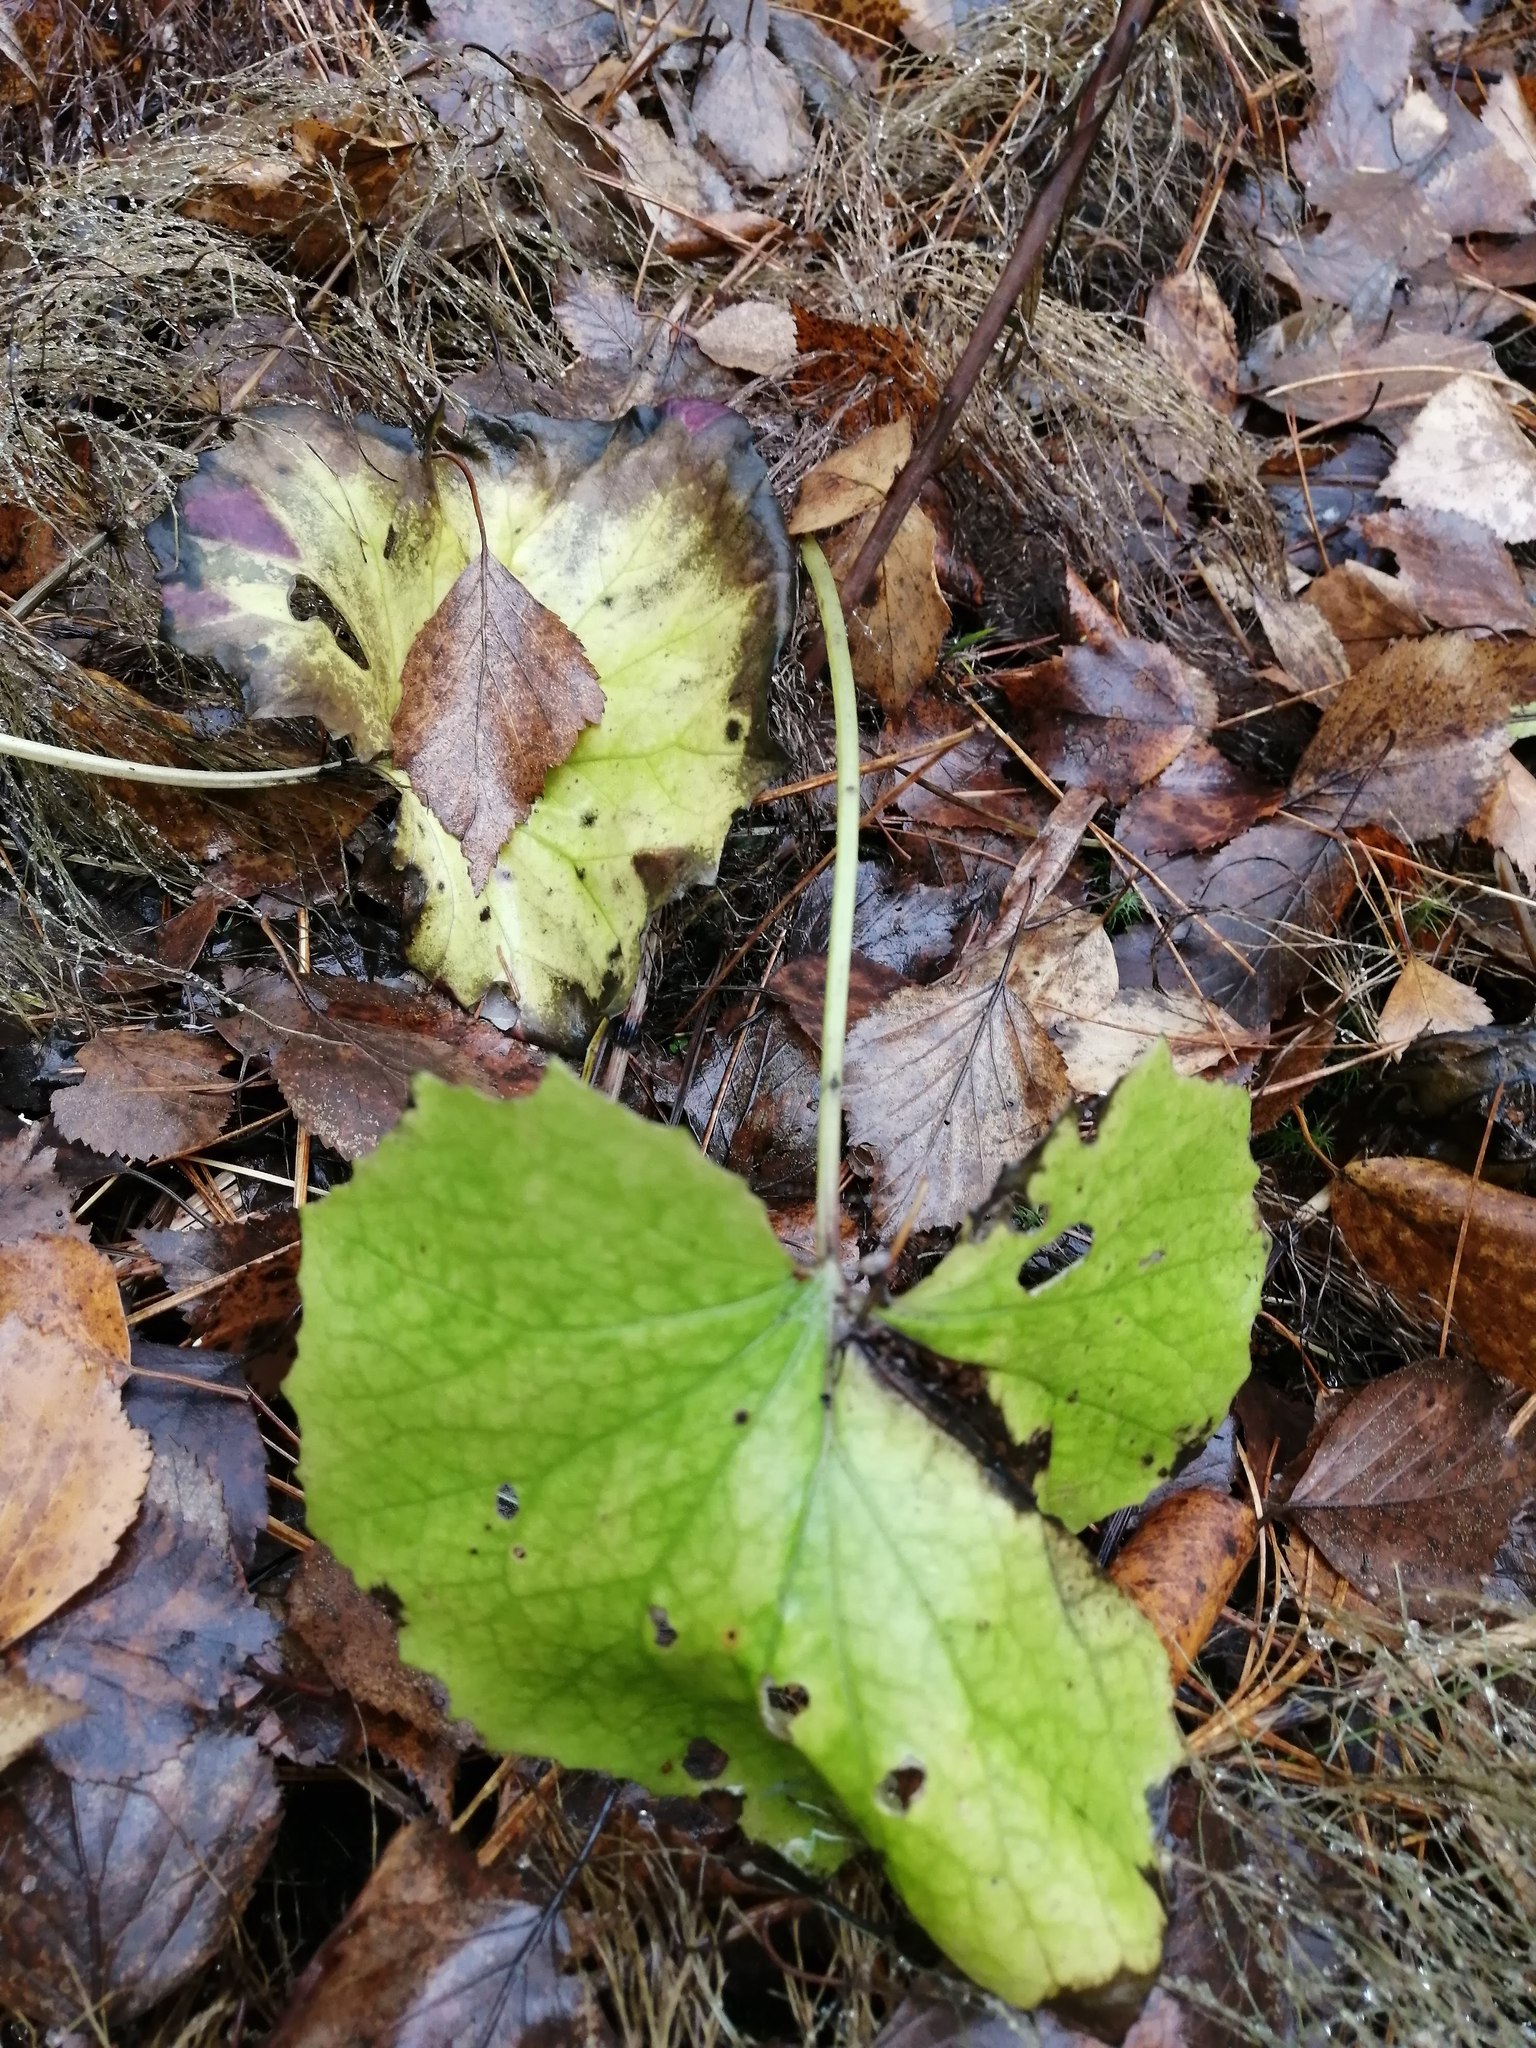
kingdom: Plantae
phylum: Tracheophyta
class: Magnoliopsida
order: Asterales
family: Asteraceae
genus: Tussilago
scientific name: Tussilago farfara
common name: Coltsfoot
